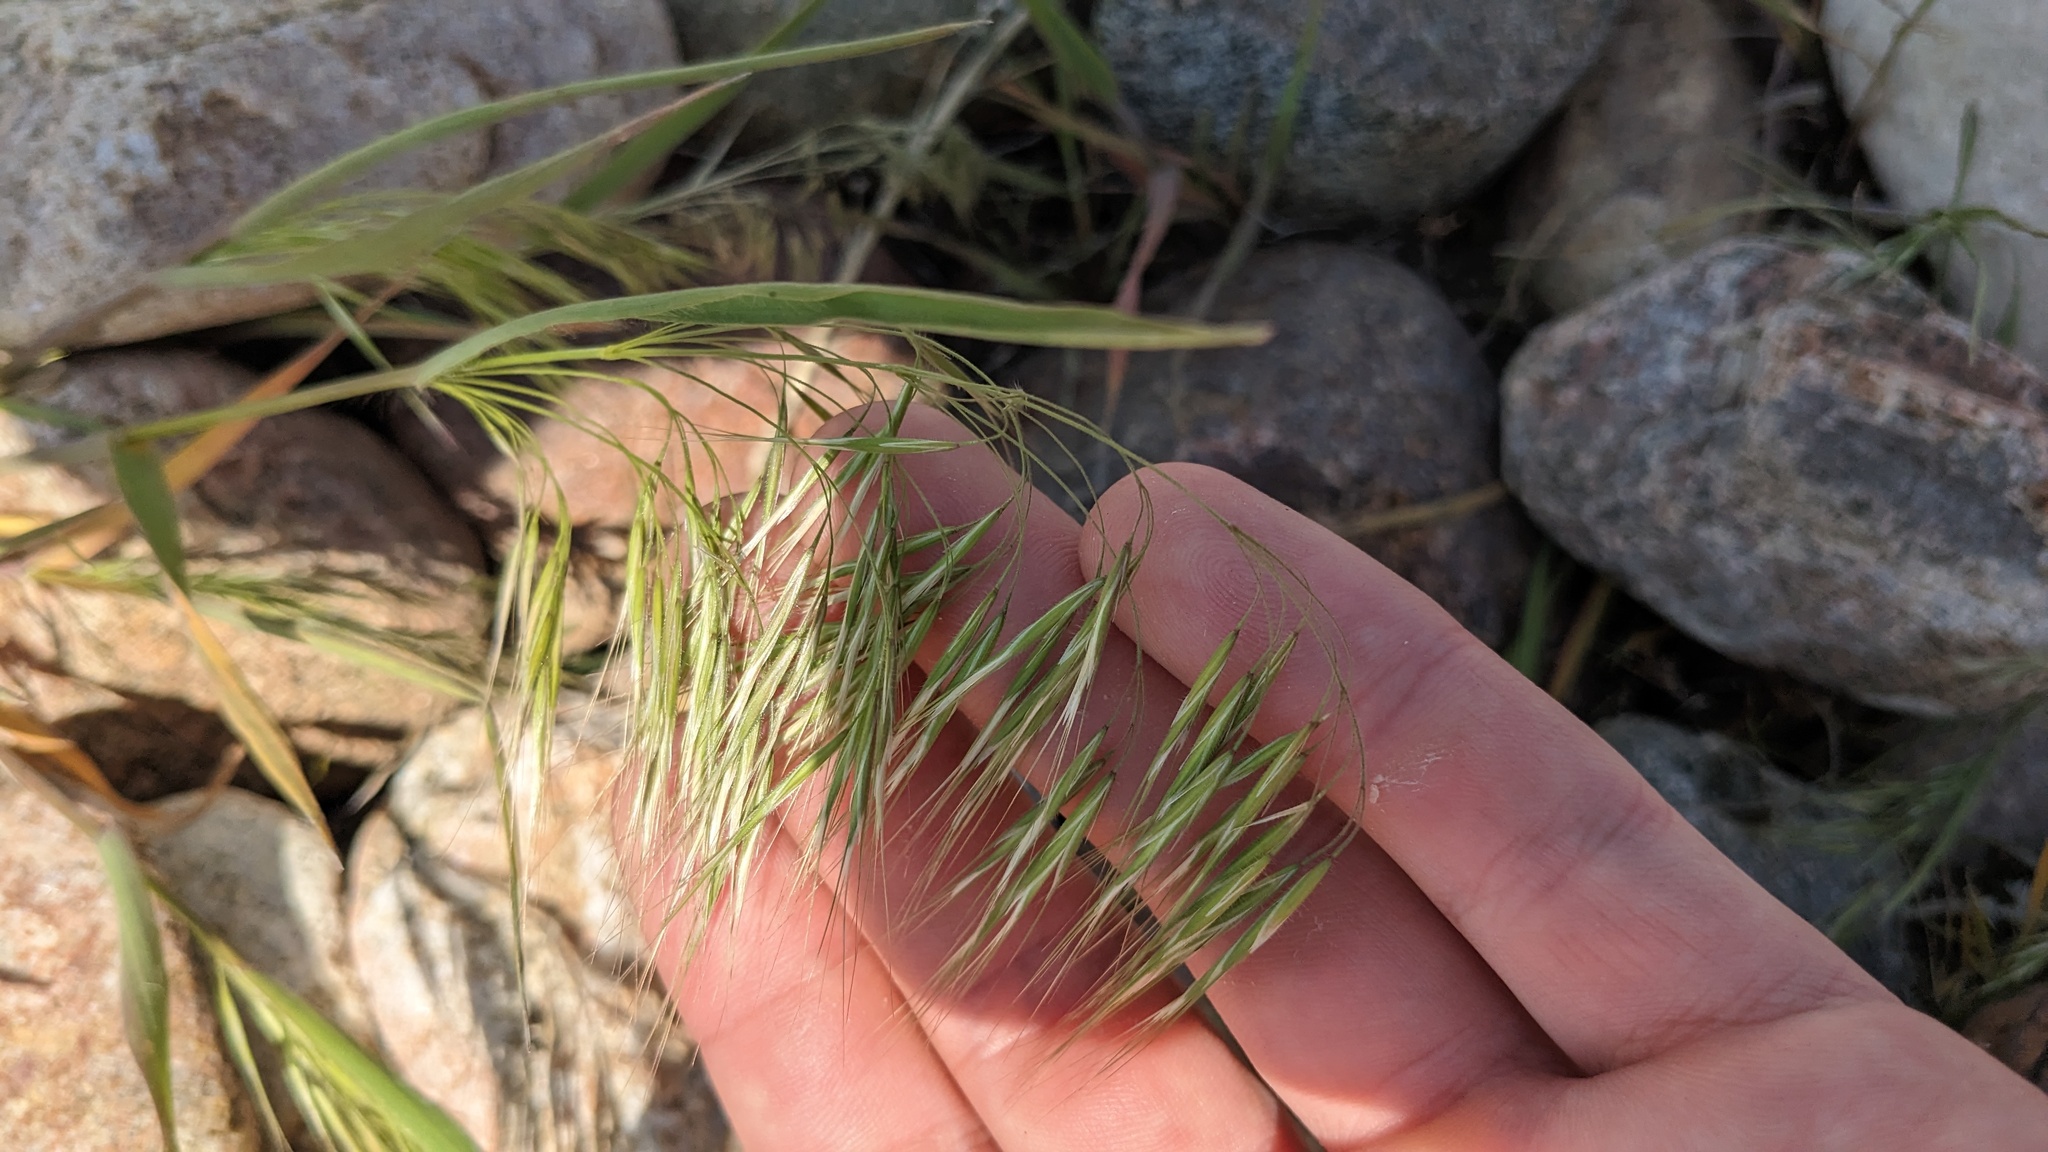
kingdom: Plantae
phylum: Tracheophyta
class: Liliopsida
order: Poales
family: Poaceae
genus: Bromus
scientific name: Bromus tectorum
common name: Cheatgrass
